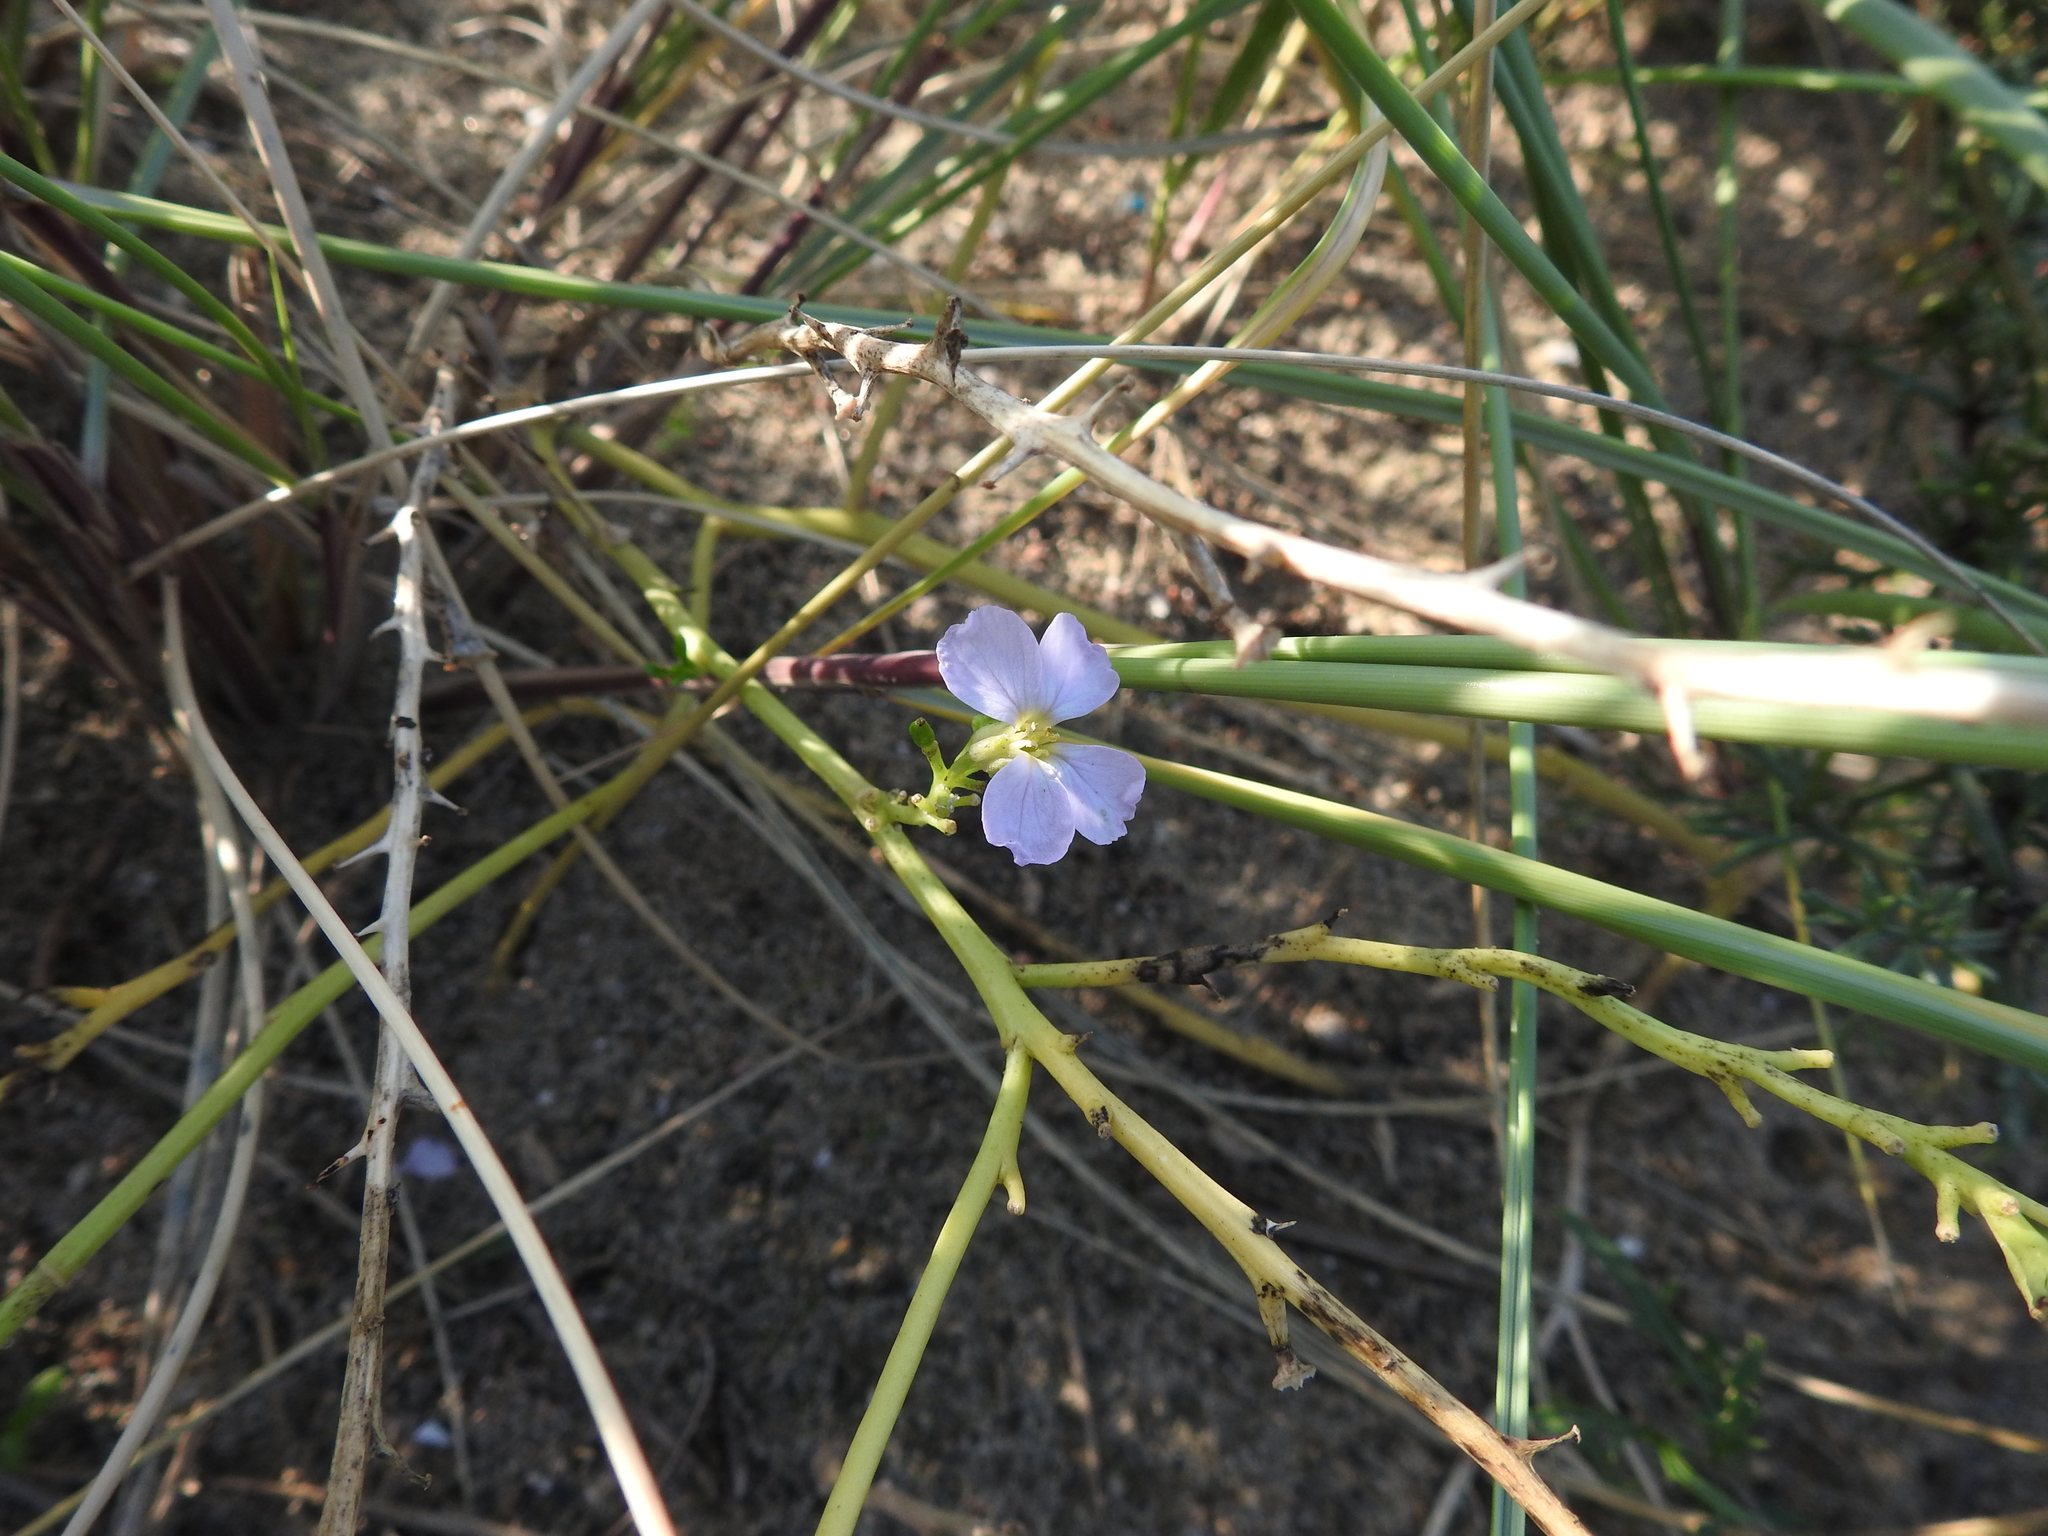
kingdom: Plantae
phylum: Tracheophyta
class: Magnoliopsida
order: Brassicales
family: Brassicaceae
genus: Cakile
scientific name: Cakile maritima
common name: Sea rocket
